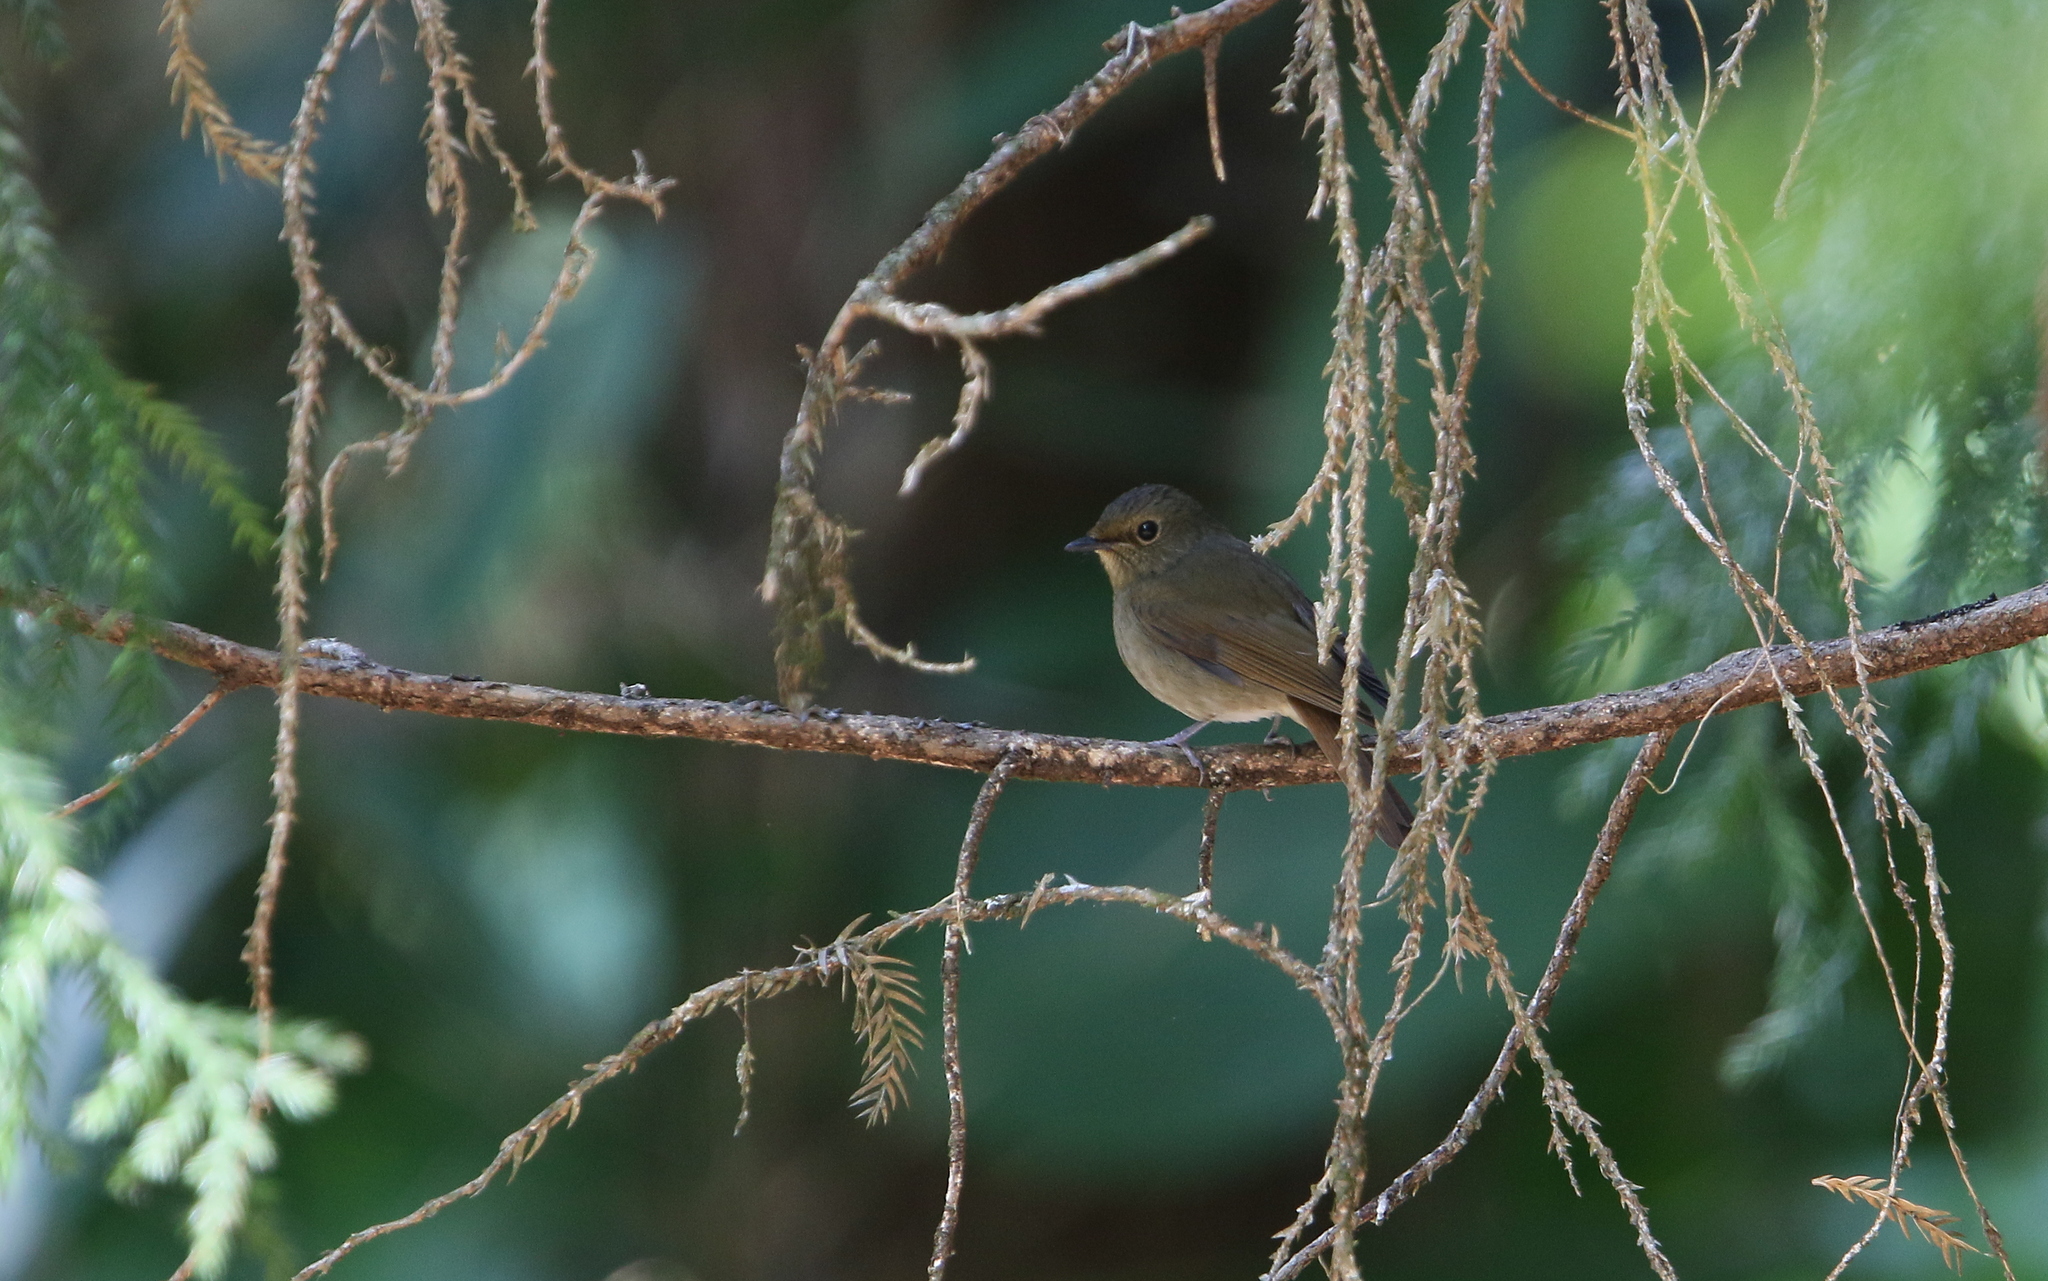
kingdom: Animalia
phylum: Chordata
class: Aves
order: Passeriformes
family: Muscicapidae
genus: Ficedula
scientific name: Ficedula tricolor
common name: Slaty-blue flycatcher
